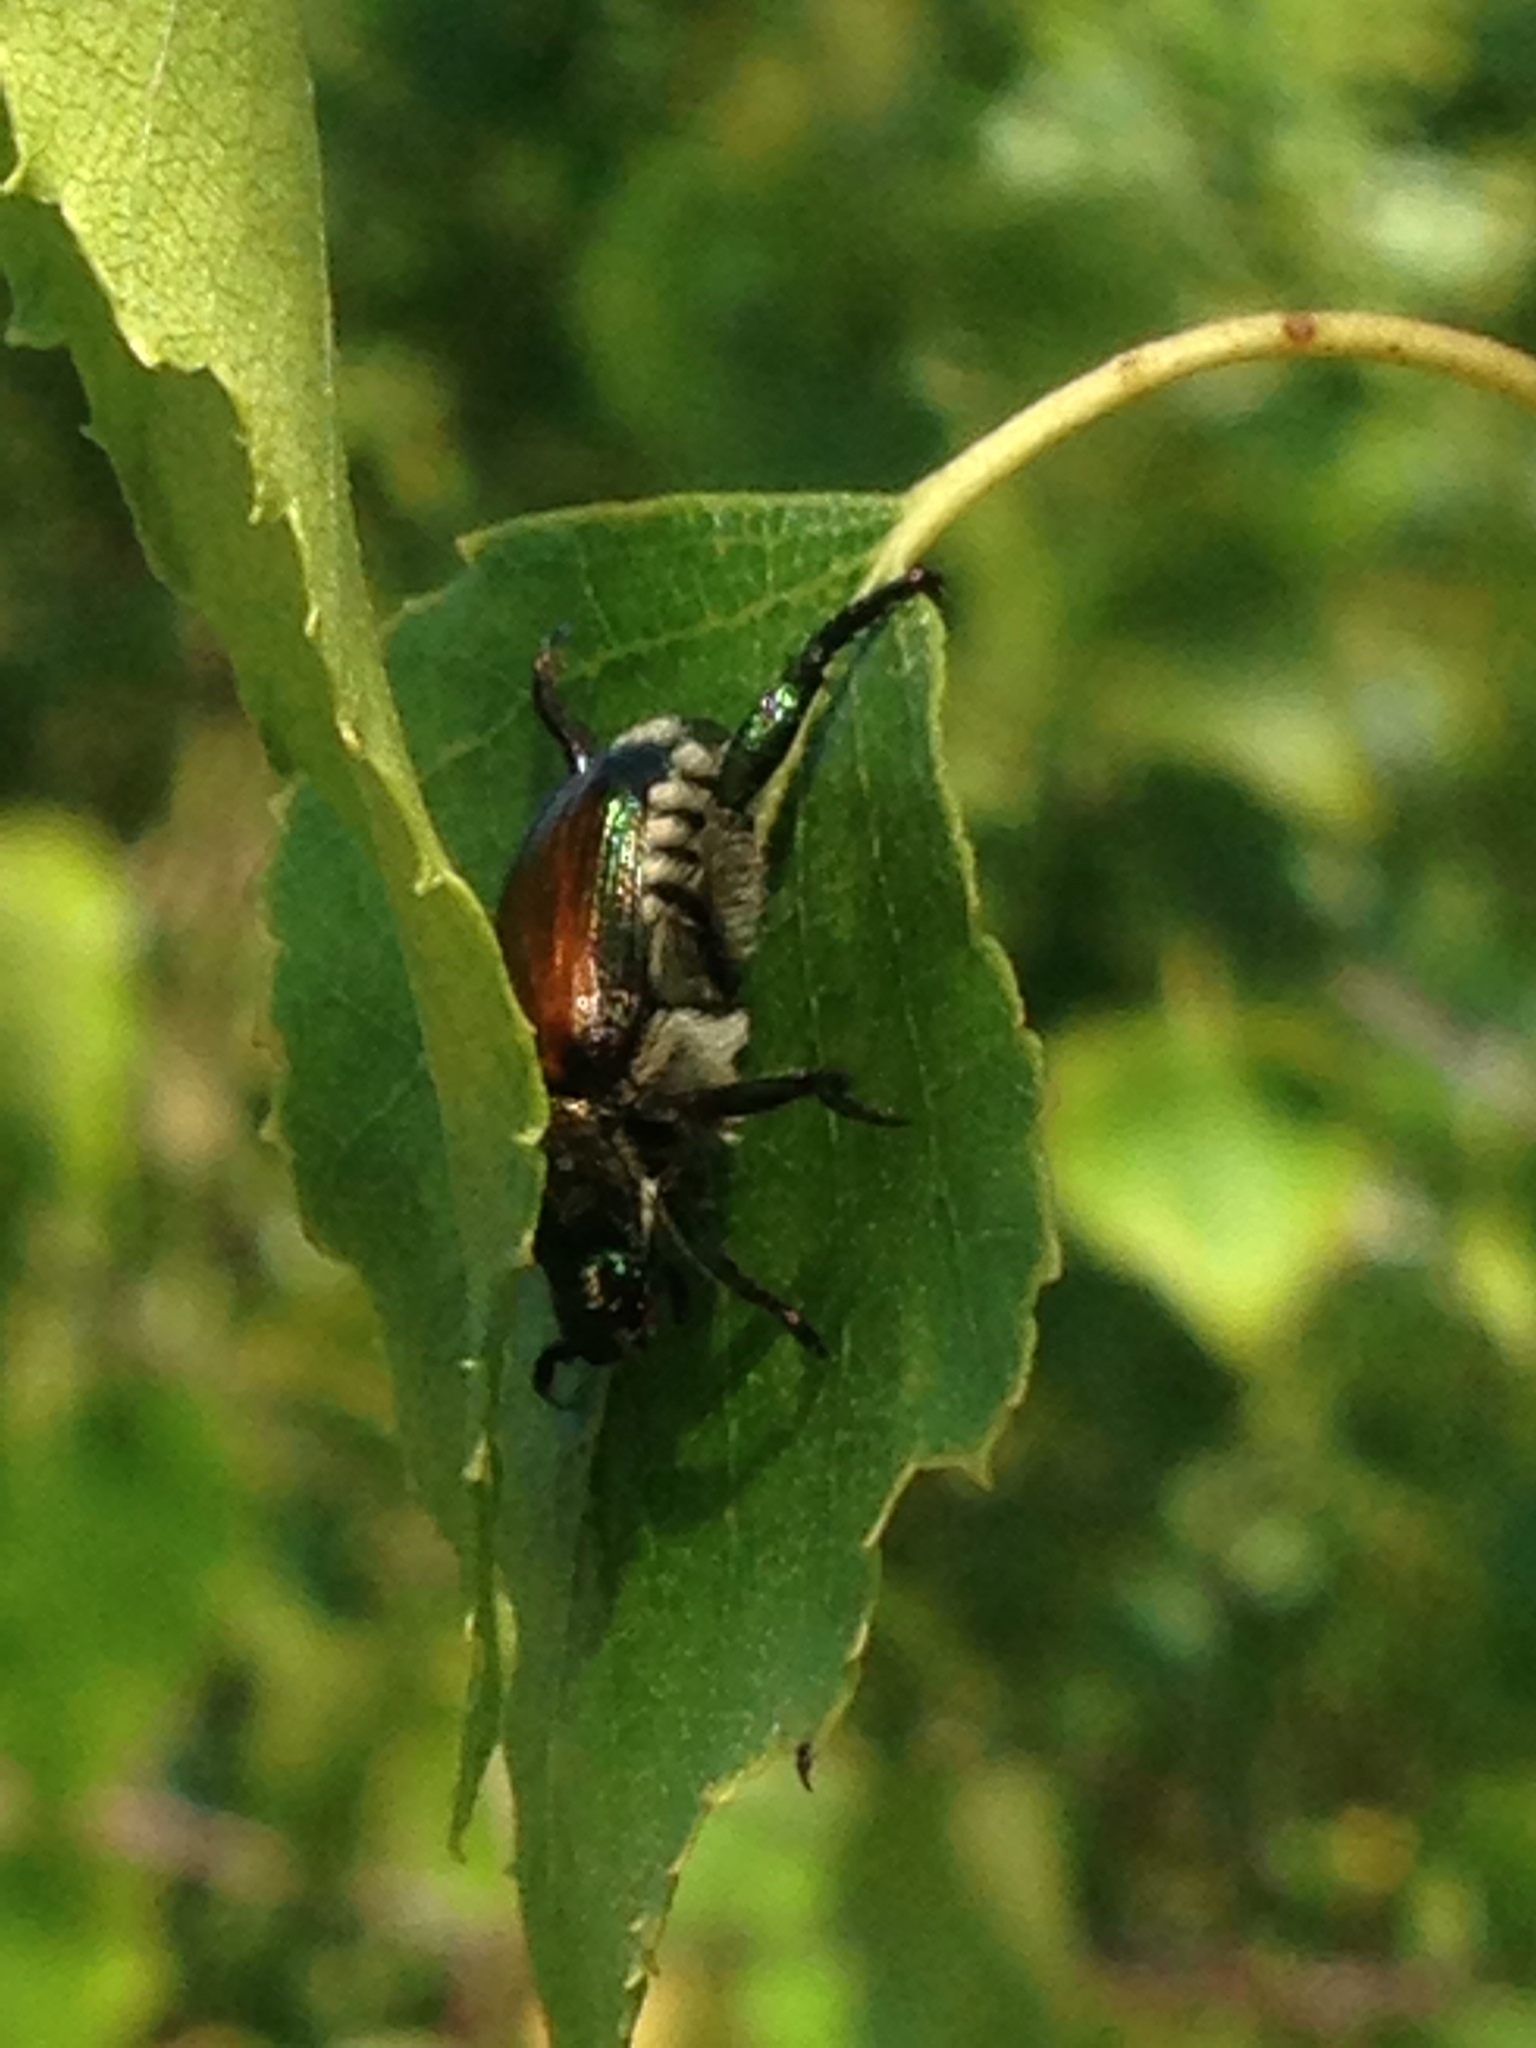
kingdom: Animalia
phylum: Arthropoda
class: Insecta
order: Coleoptera
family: Scarabaeidae
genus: Popillia
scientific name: Popillia japonica
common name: Japanese beetle
